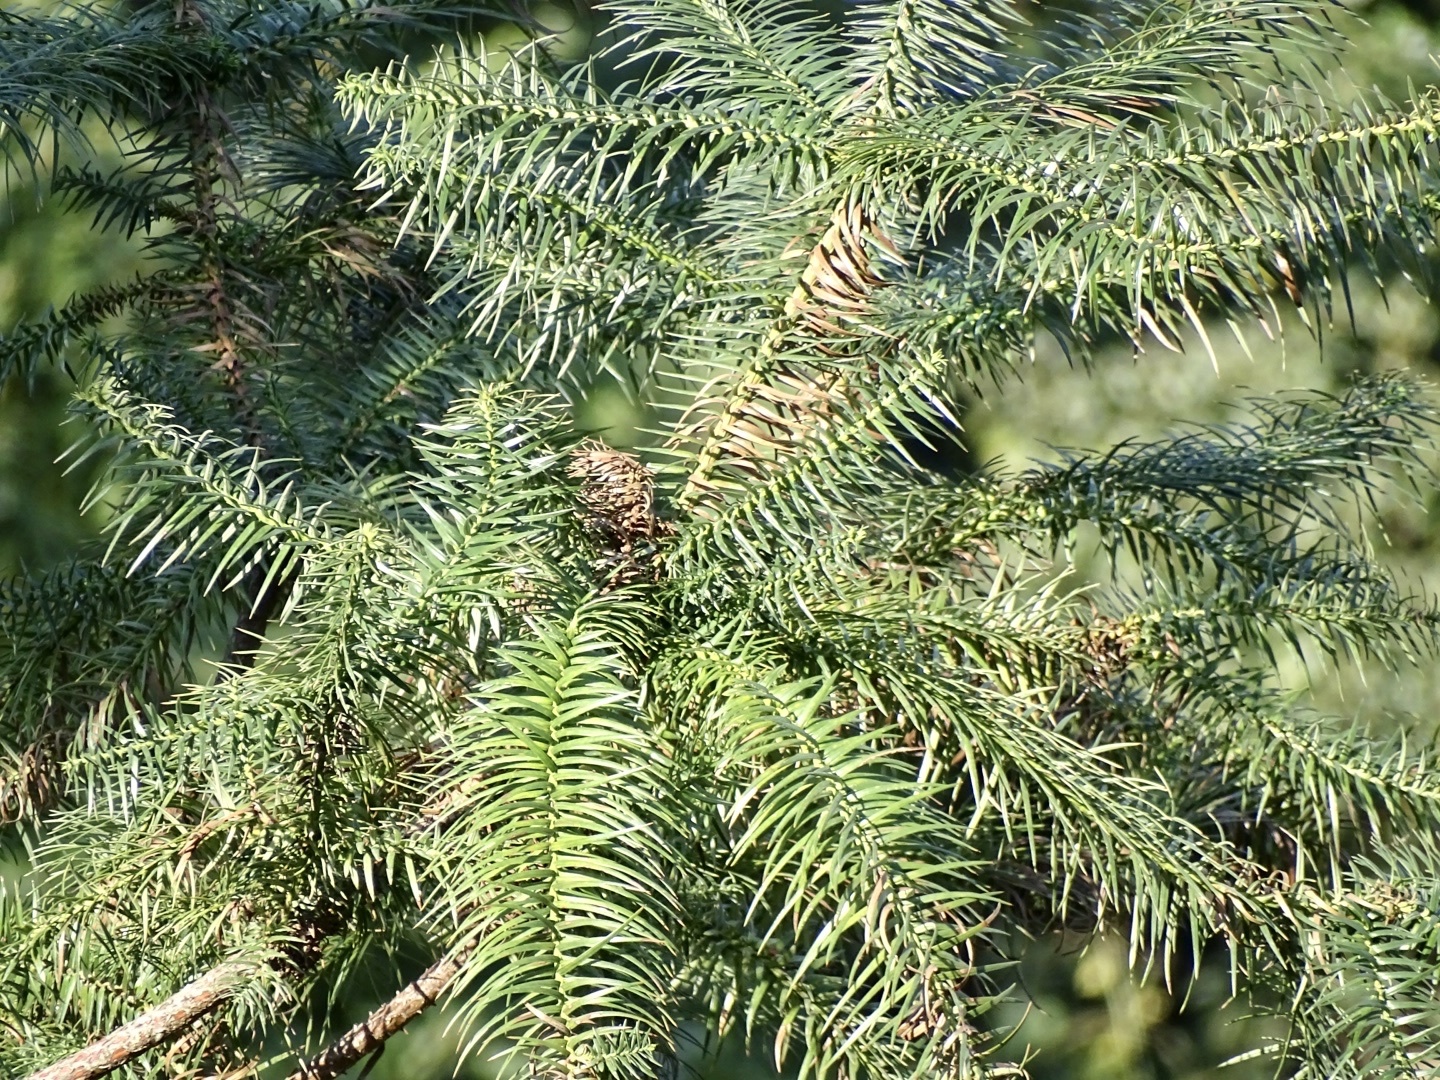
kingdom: Plantae
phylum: Tracheophyta
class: Pinopsida
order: Pinales
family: Cupressaceae
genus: Cunninghamia
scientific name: Cunninghamia lanceolata
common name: Chinese fir
